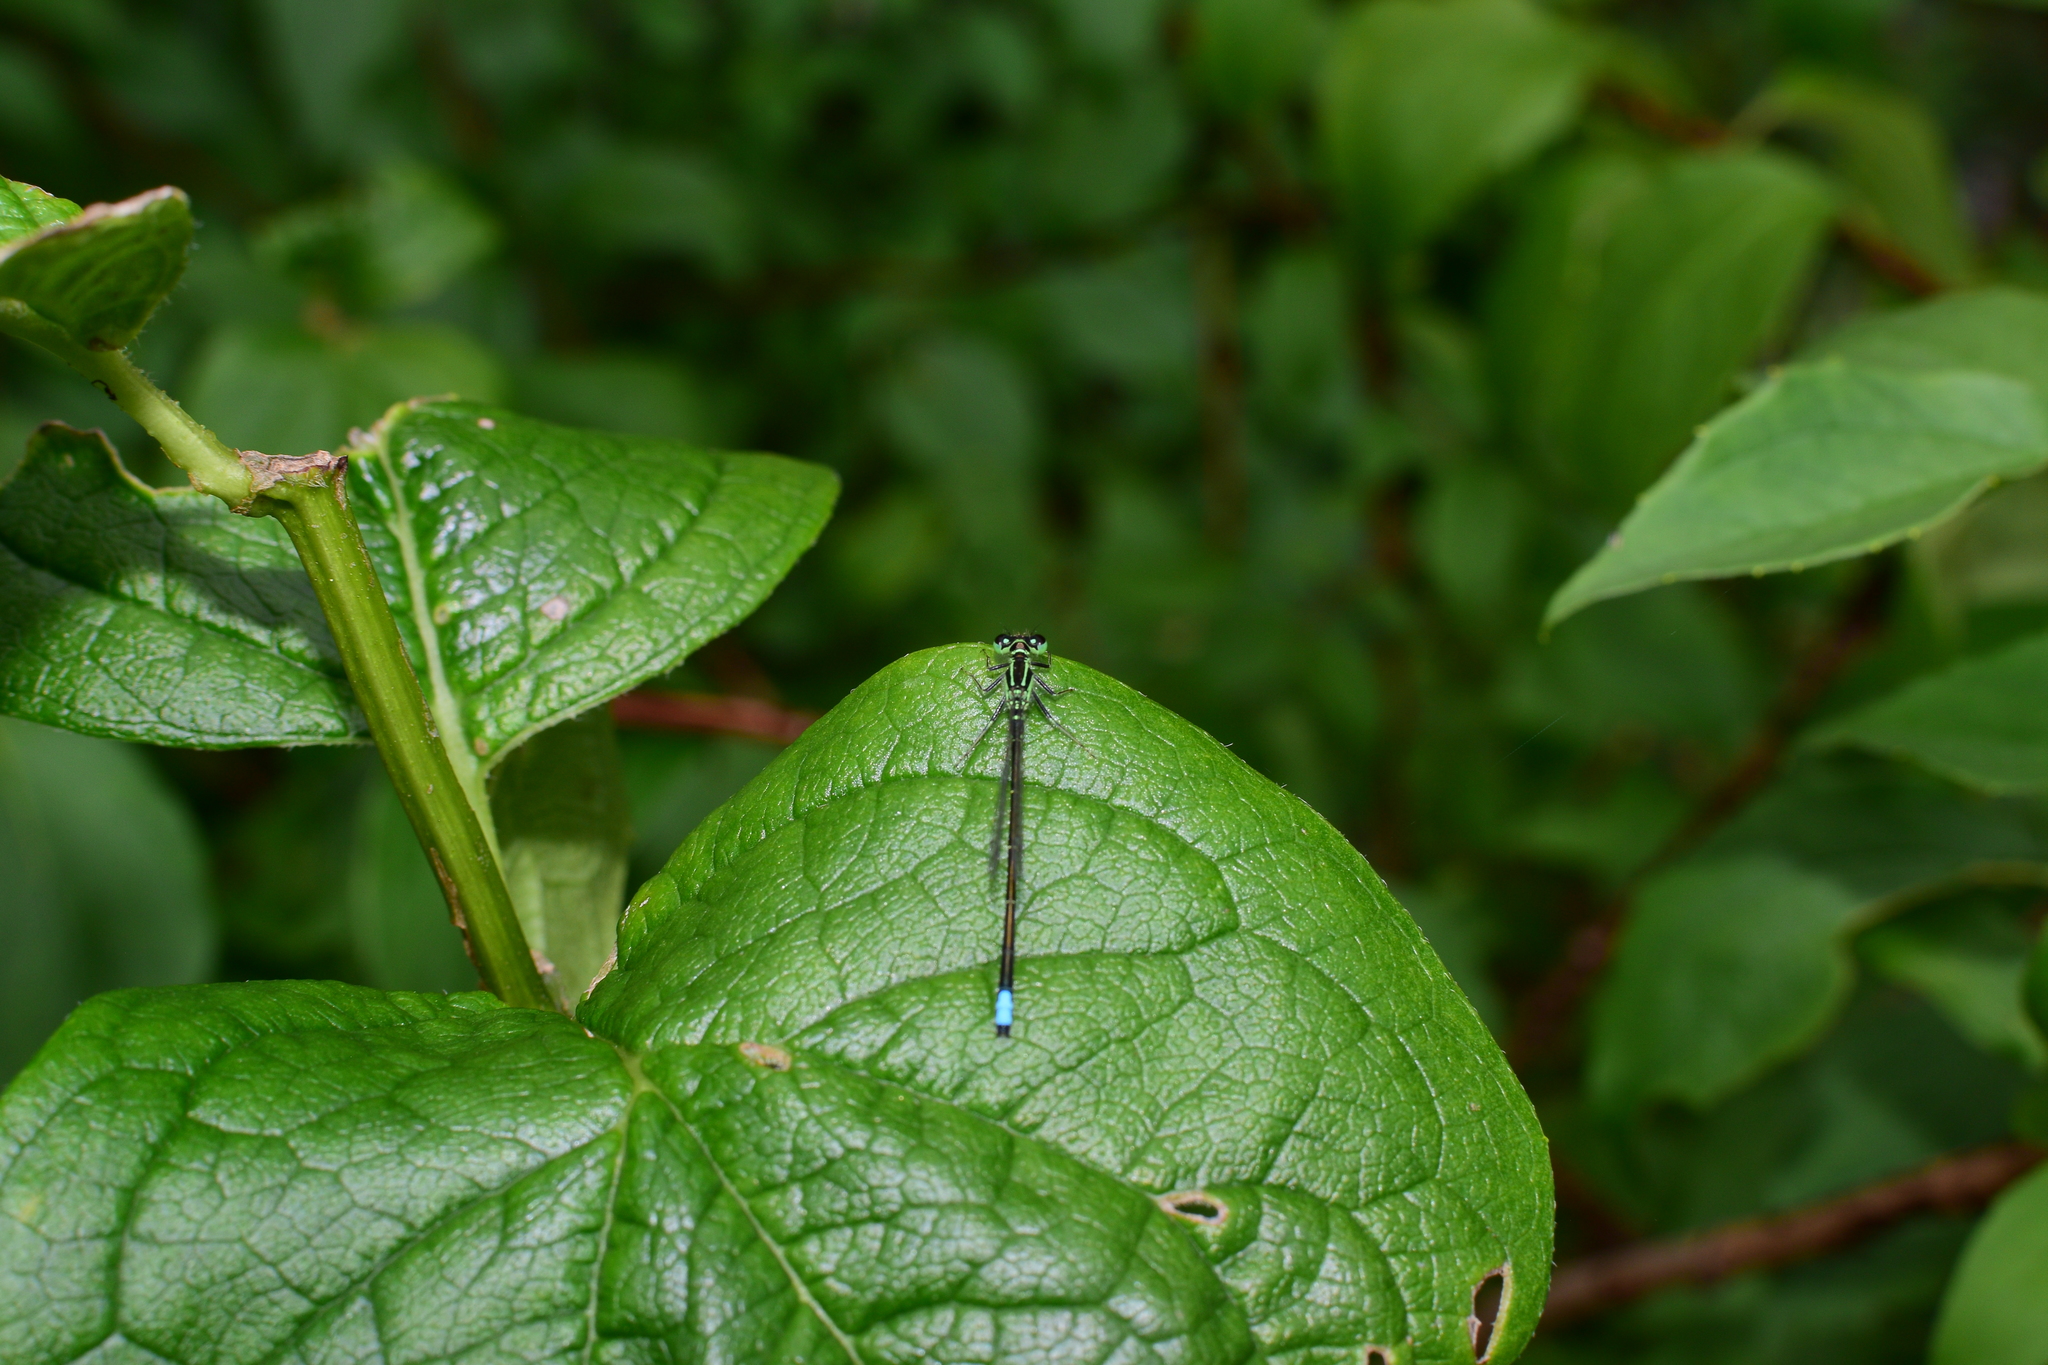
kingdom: Animalia
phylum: Arthropoda
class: Insecta
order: Odonata
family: Coenagrionidae
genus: Ischnura
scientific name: Ischnura verticalis
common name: Eastern forktail
